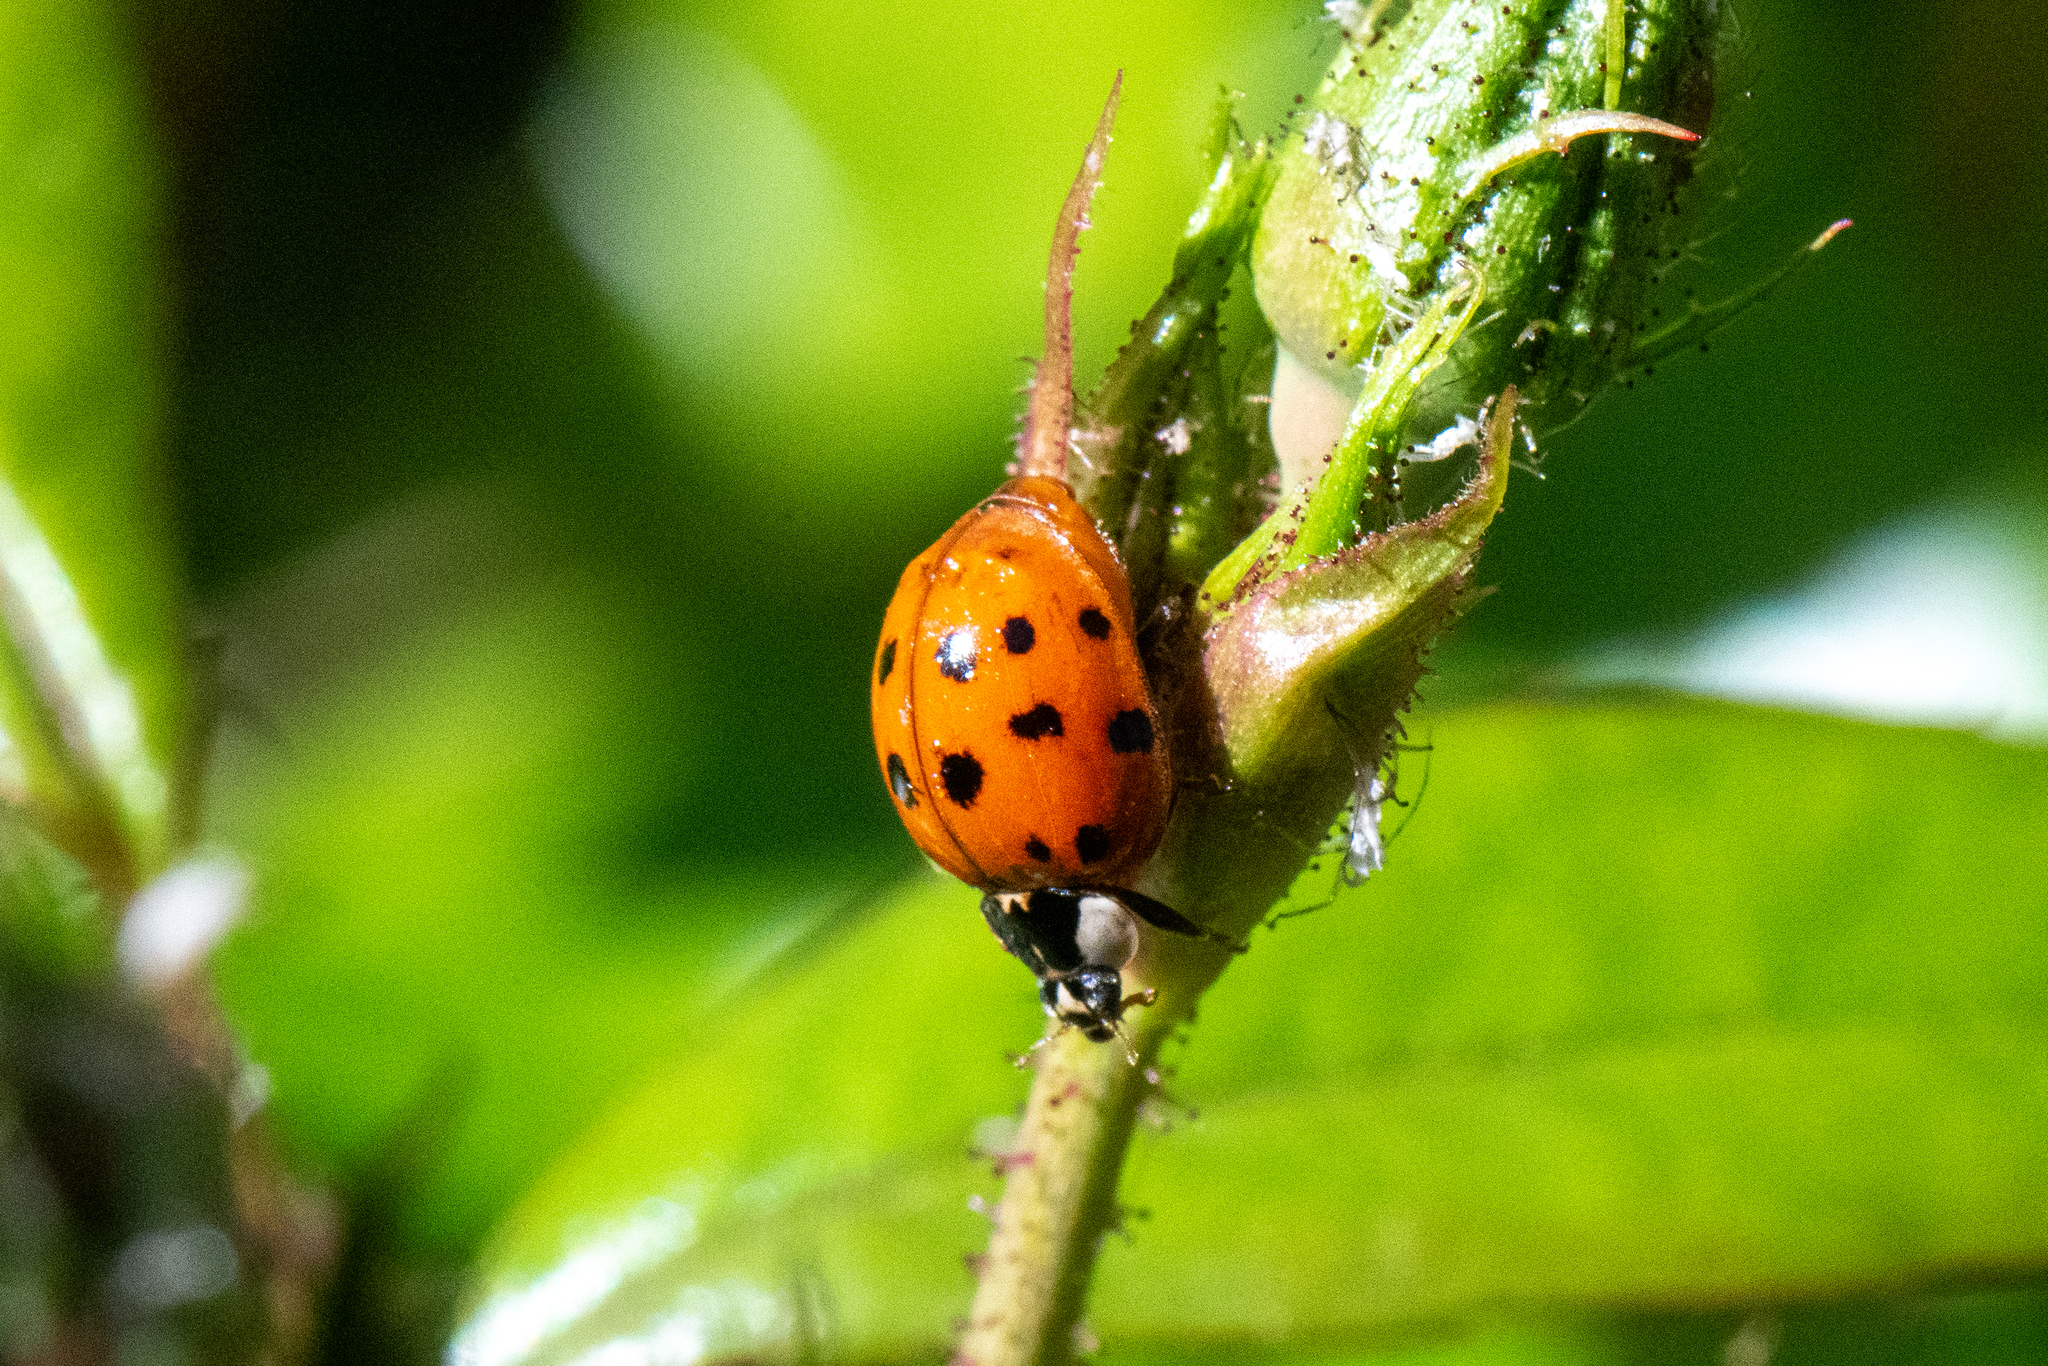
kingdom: Animalia
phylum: Arthropoda
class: Insecta
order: Coleoptera
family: Coccinellidae
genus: Harmonia
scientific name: Harmonia axyridis
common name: Harlequin ladybird
